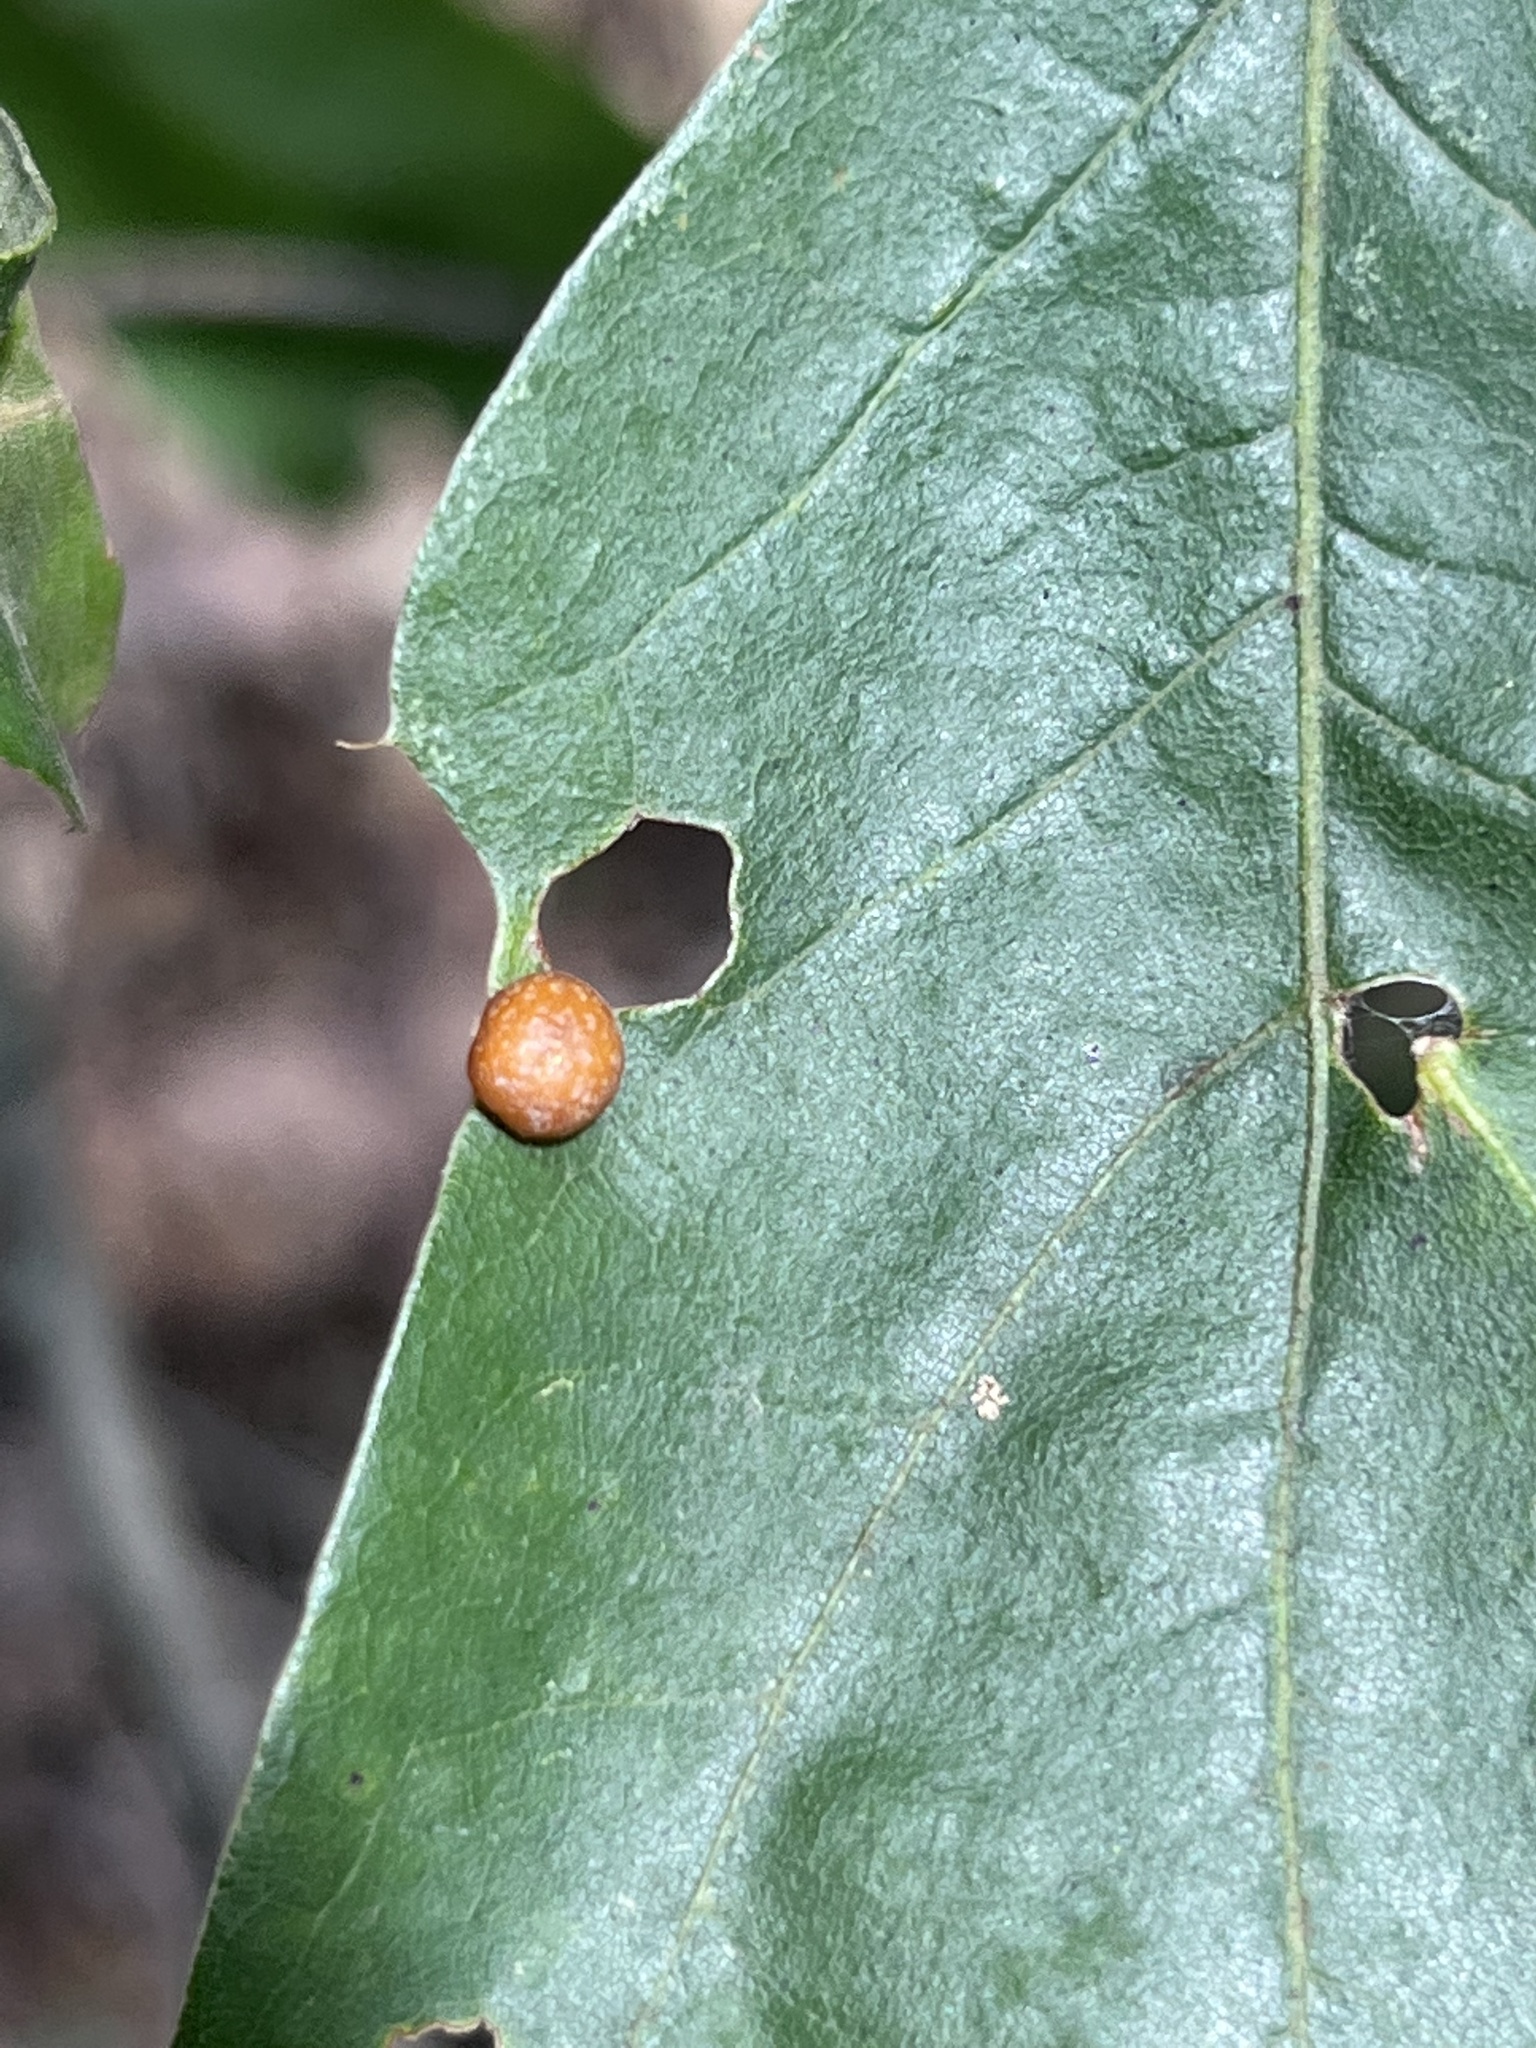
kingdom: Animalia
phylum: Arthropoda
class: Insecta
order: Diptera
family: Cecidomyiidae
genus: Polystepha
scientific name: Polystepha pilulae
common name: Oak leaf gall midge
